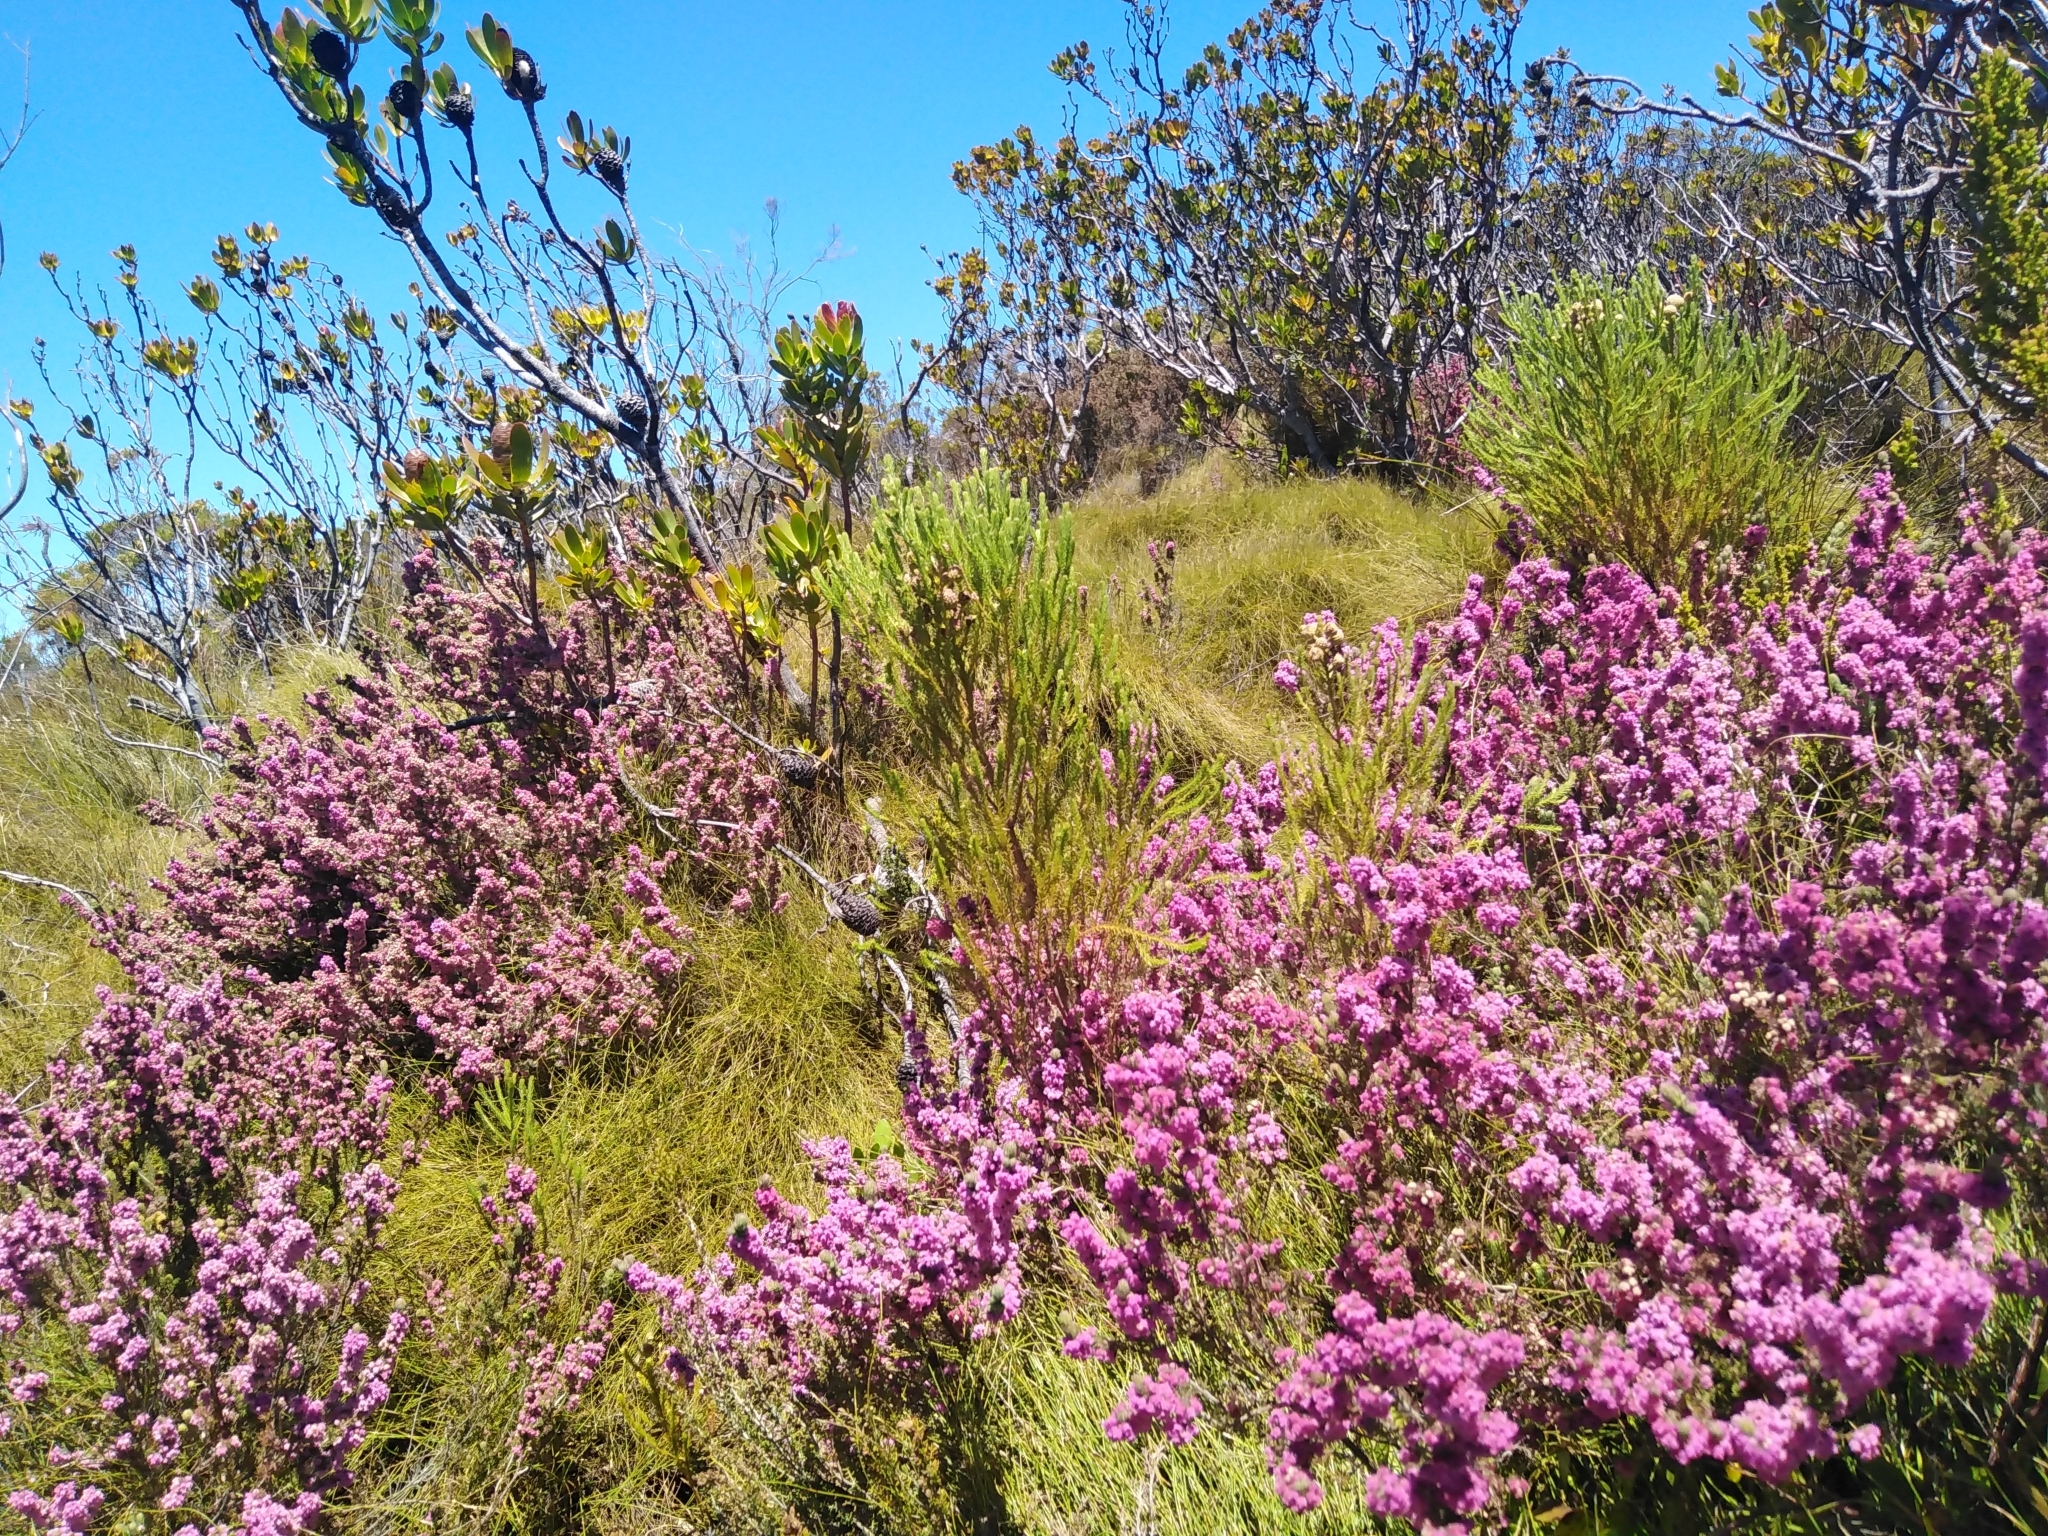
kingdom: Plantae
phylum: Tracheophyta
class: Magnoliopsida
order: Ericales
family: Ericaceae
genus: Erica
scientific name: Erica mollis
